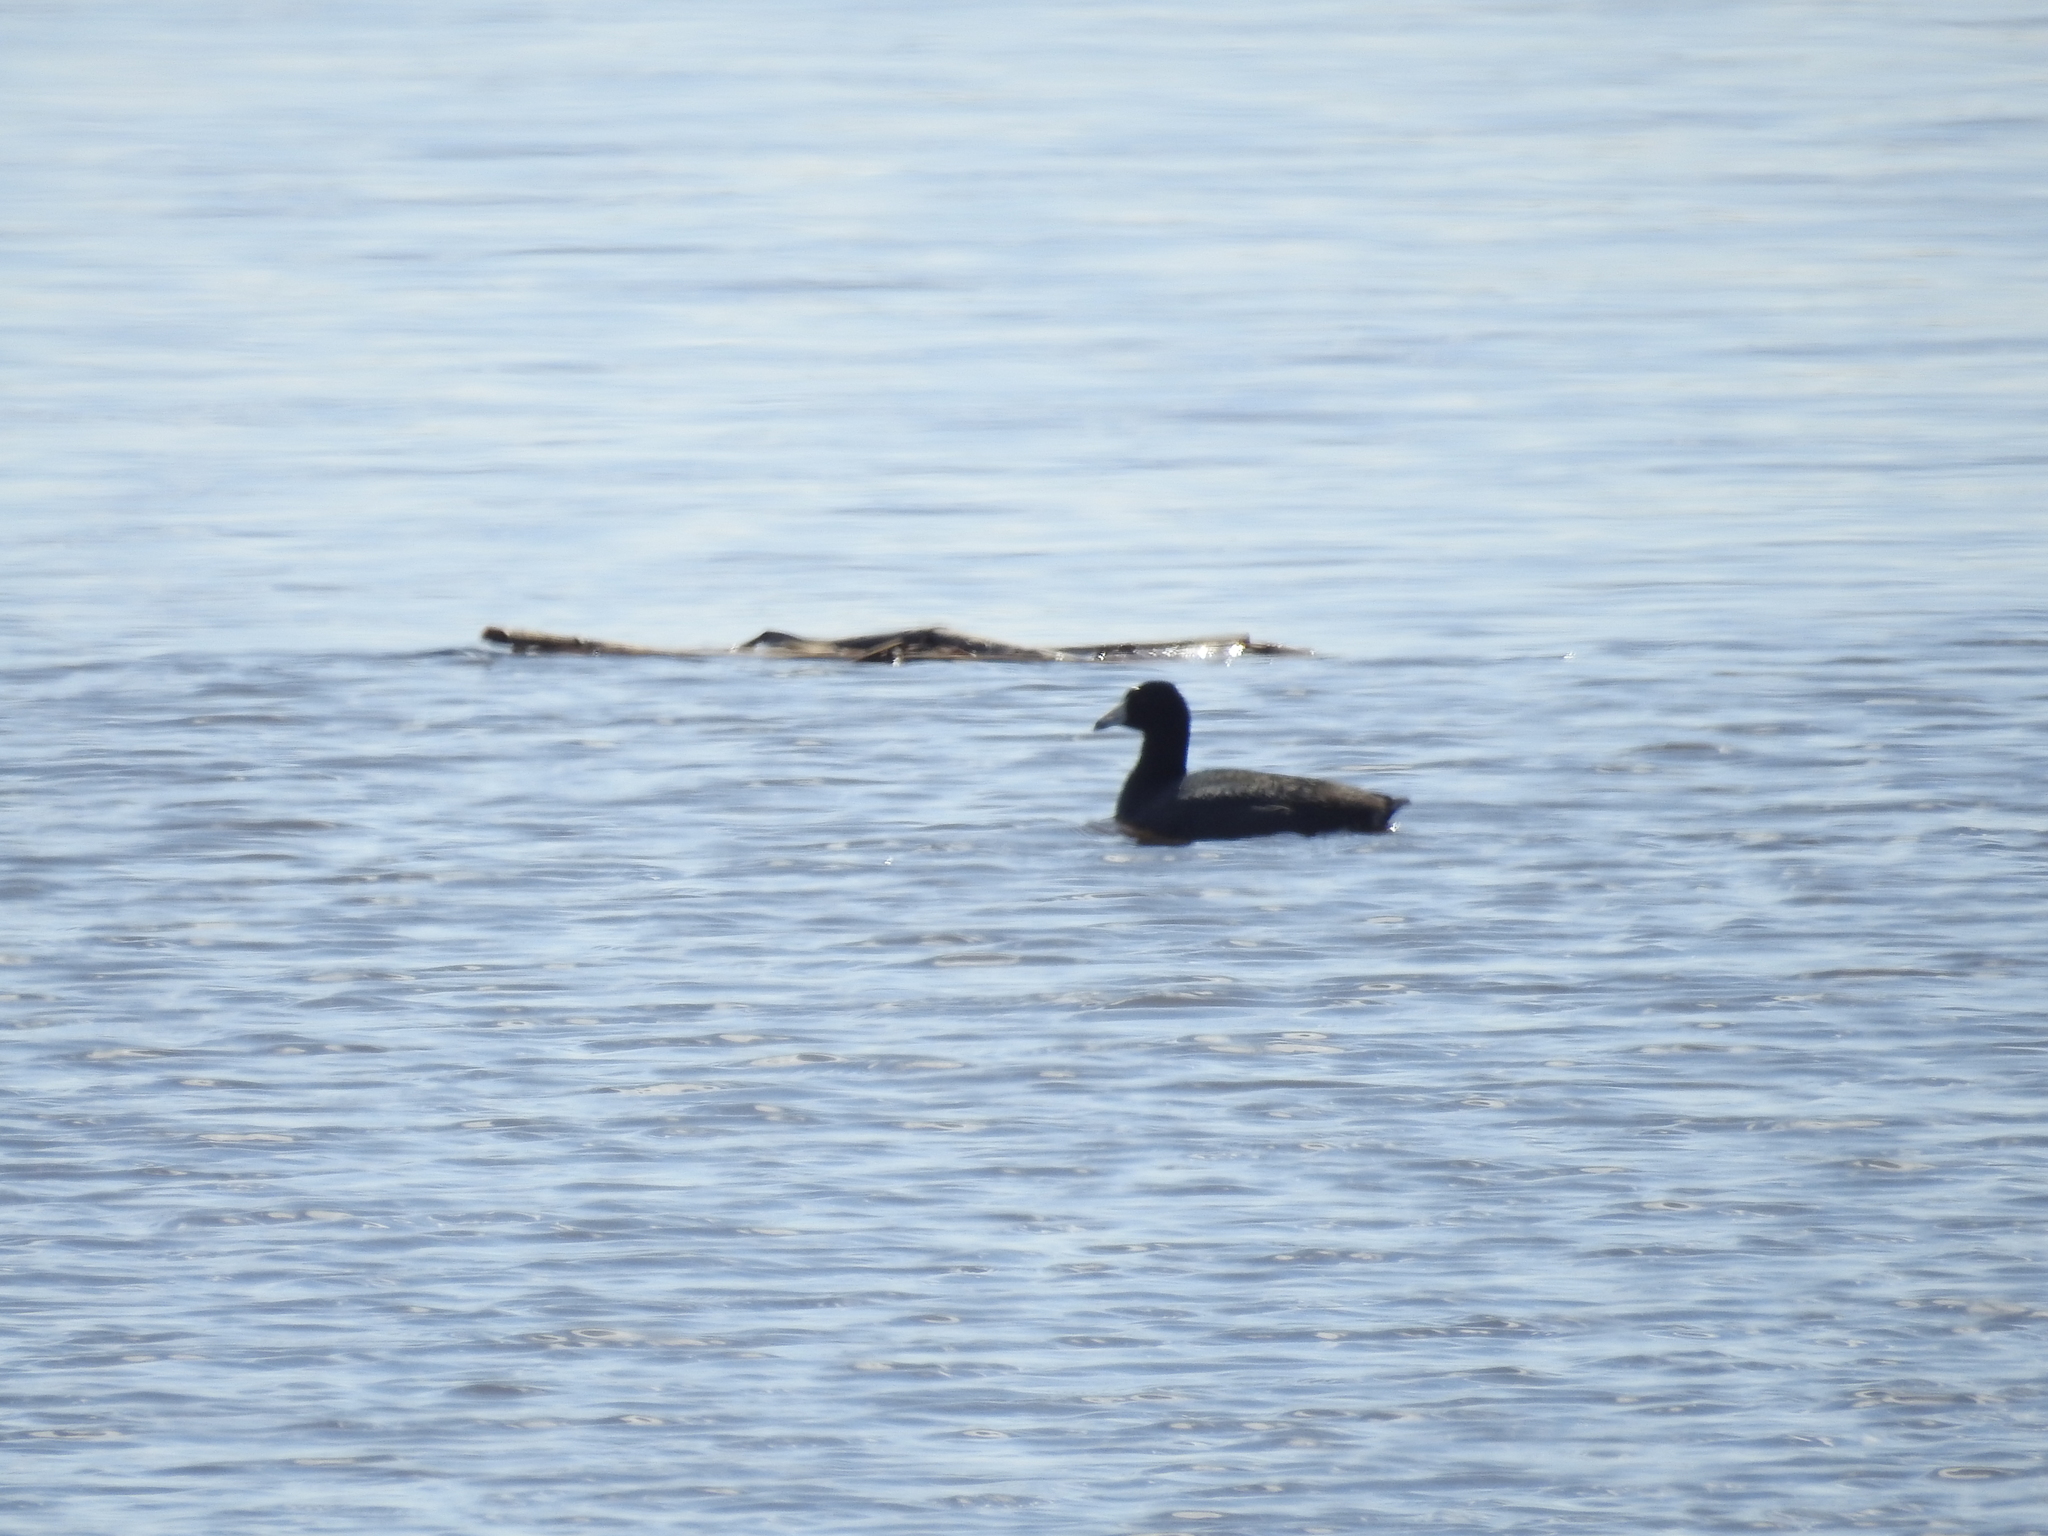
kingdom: Animalia
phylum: Chordata
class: Aves
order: Gruiformes
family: Rallidae
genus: Fulica
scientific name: Fulica americana
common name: American coot
